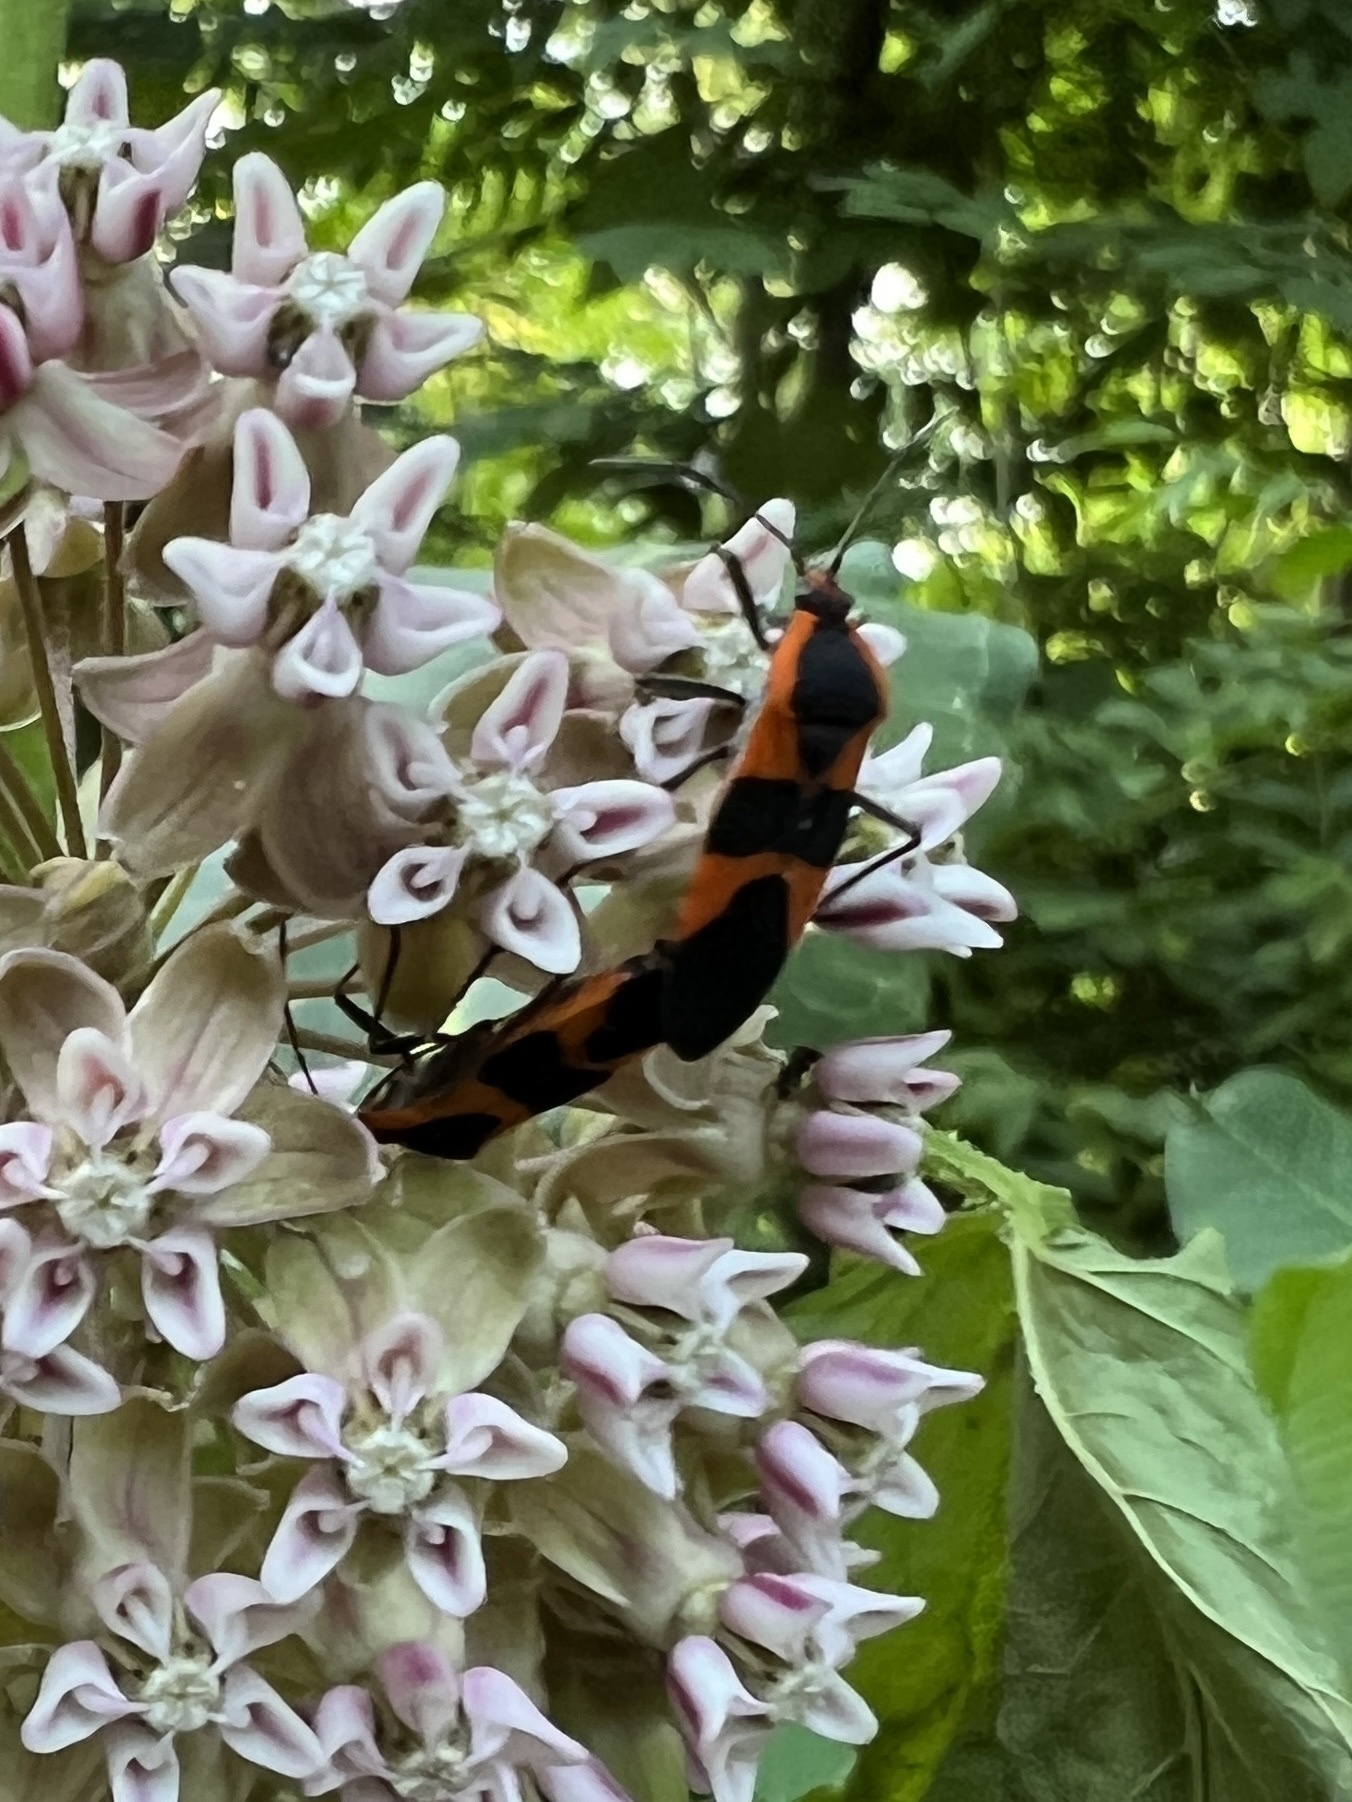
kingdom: Animalia
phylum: Arthropoda
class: Insecta
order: Hemiptera
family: Lygaeidae
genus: Oncopeltus
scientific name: Oncopeltus fasciatus
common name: Large milkweed bug
